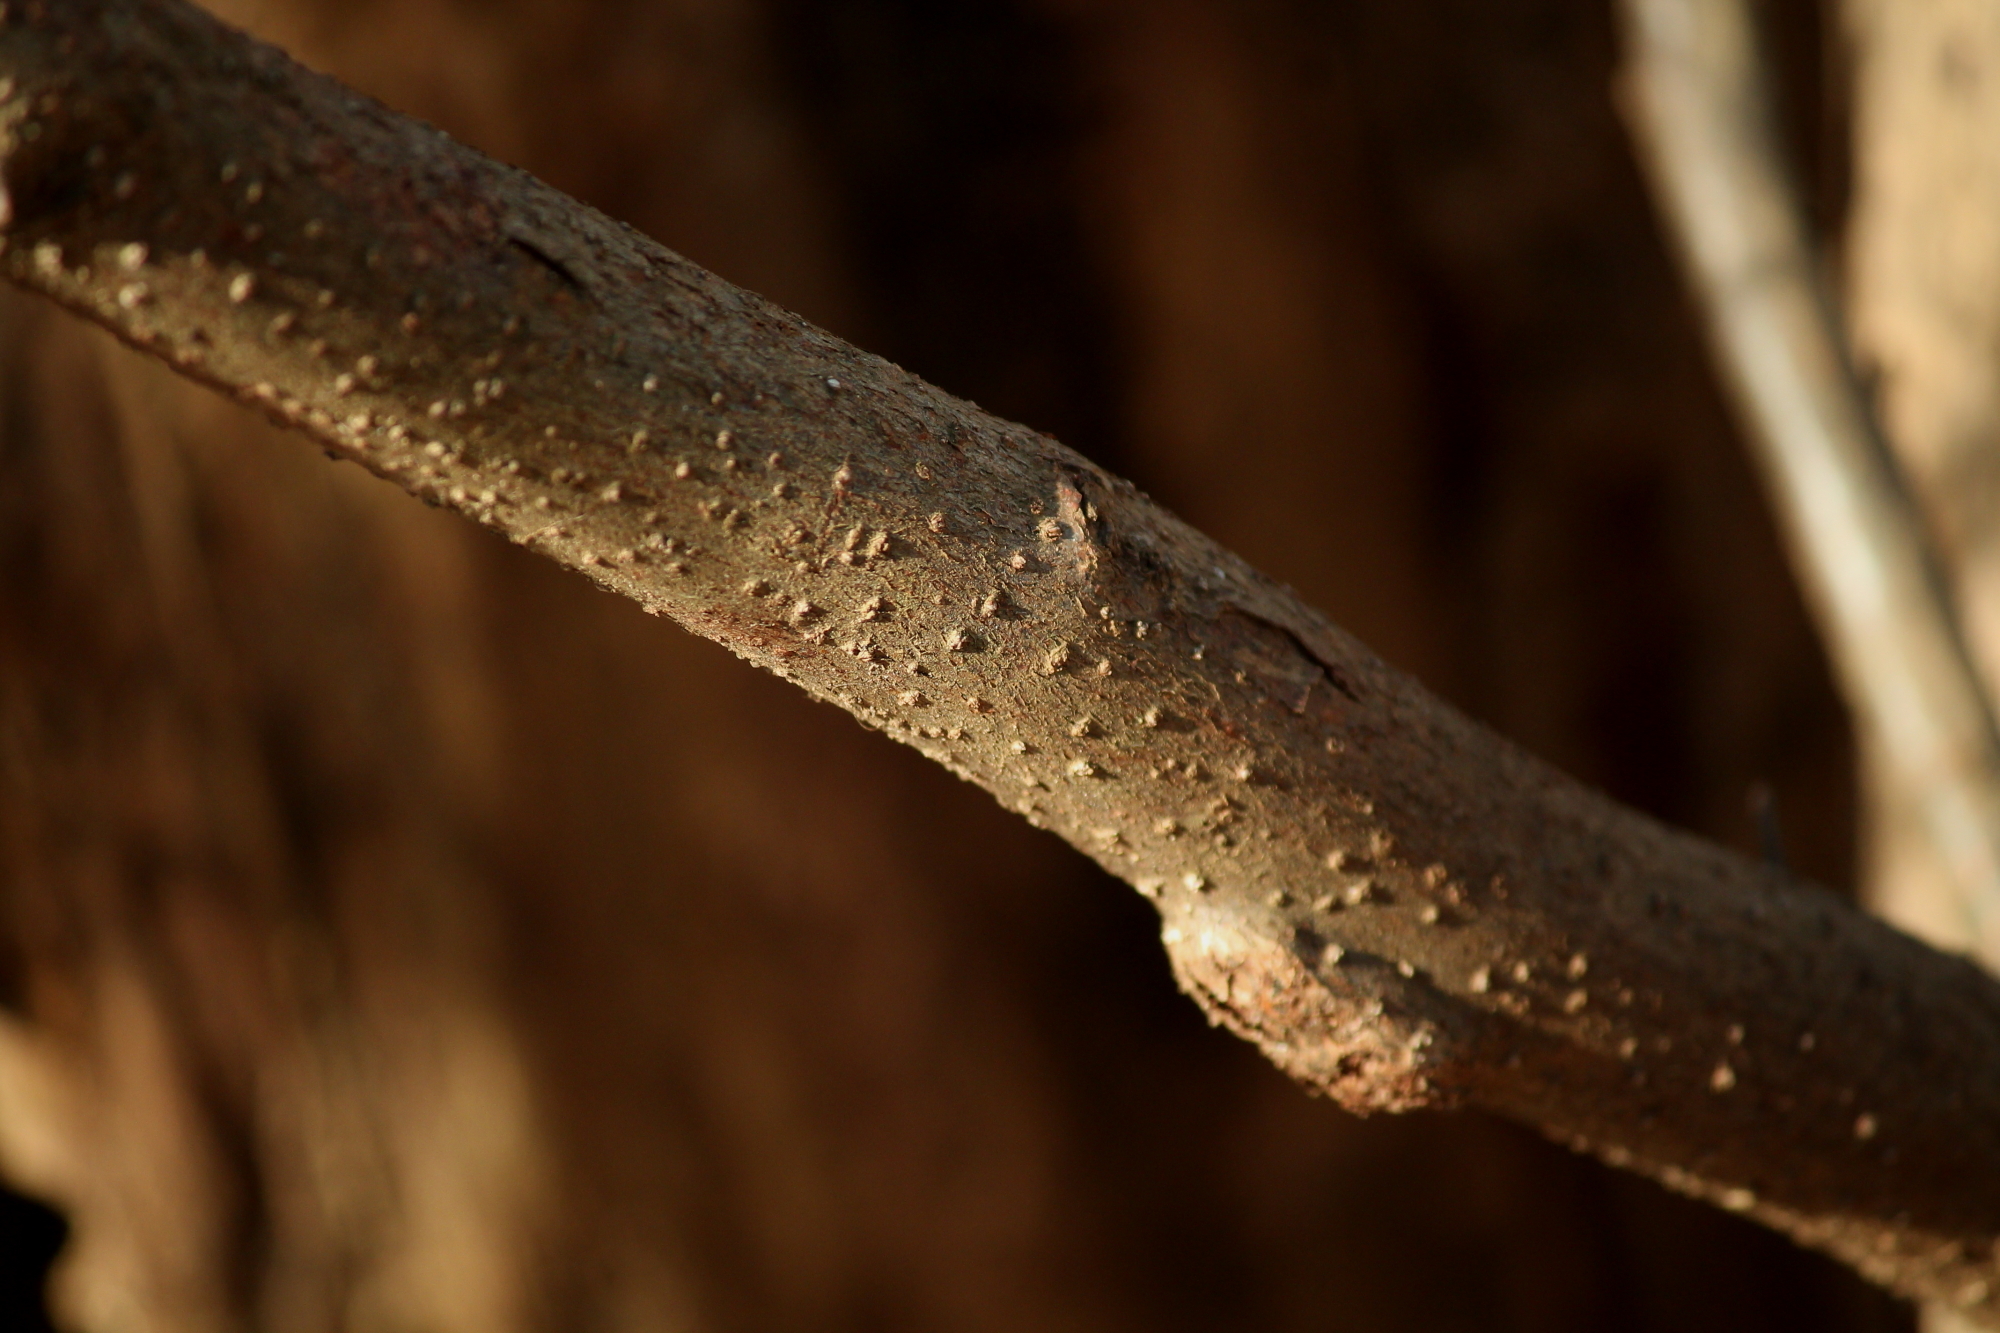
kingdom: Plantae
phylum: Tracheophyta
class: Magnoliopsida
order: Laurales
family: Lauraceae
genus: Lindera
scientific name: Lindera benzoin
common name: Spicebush
